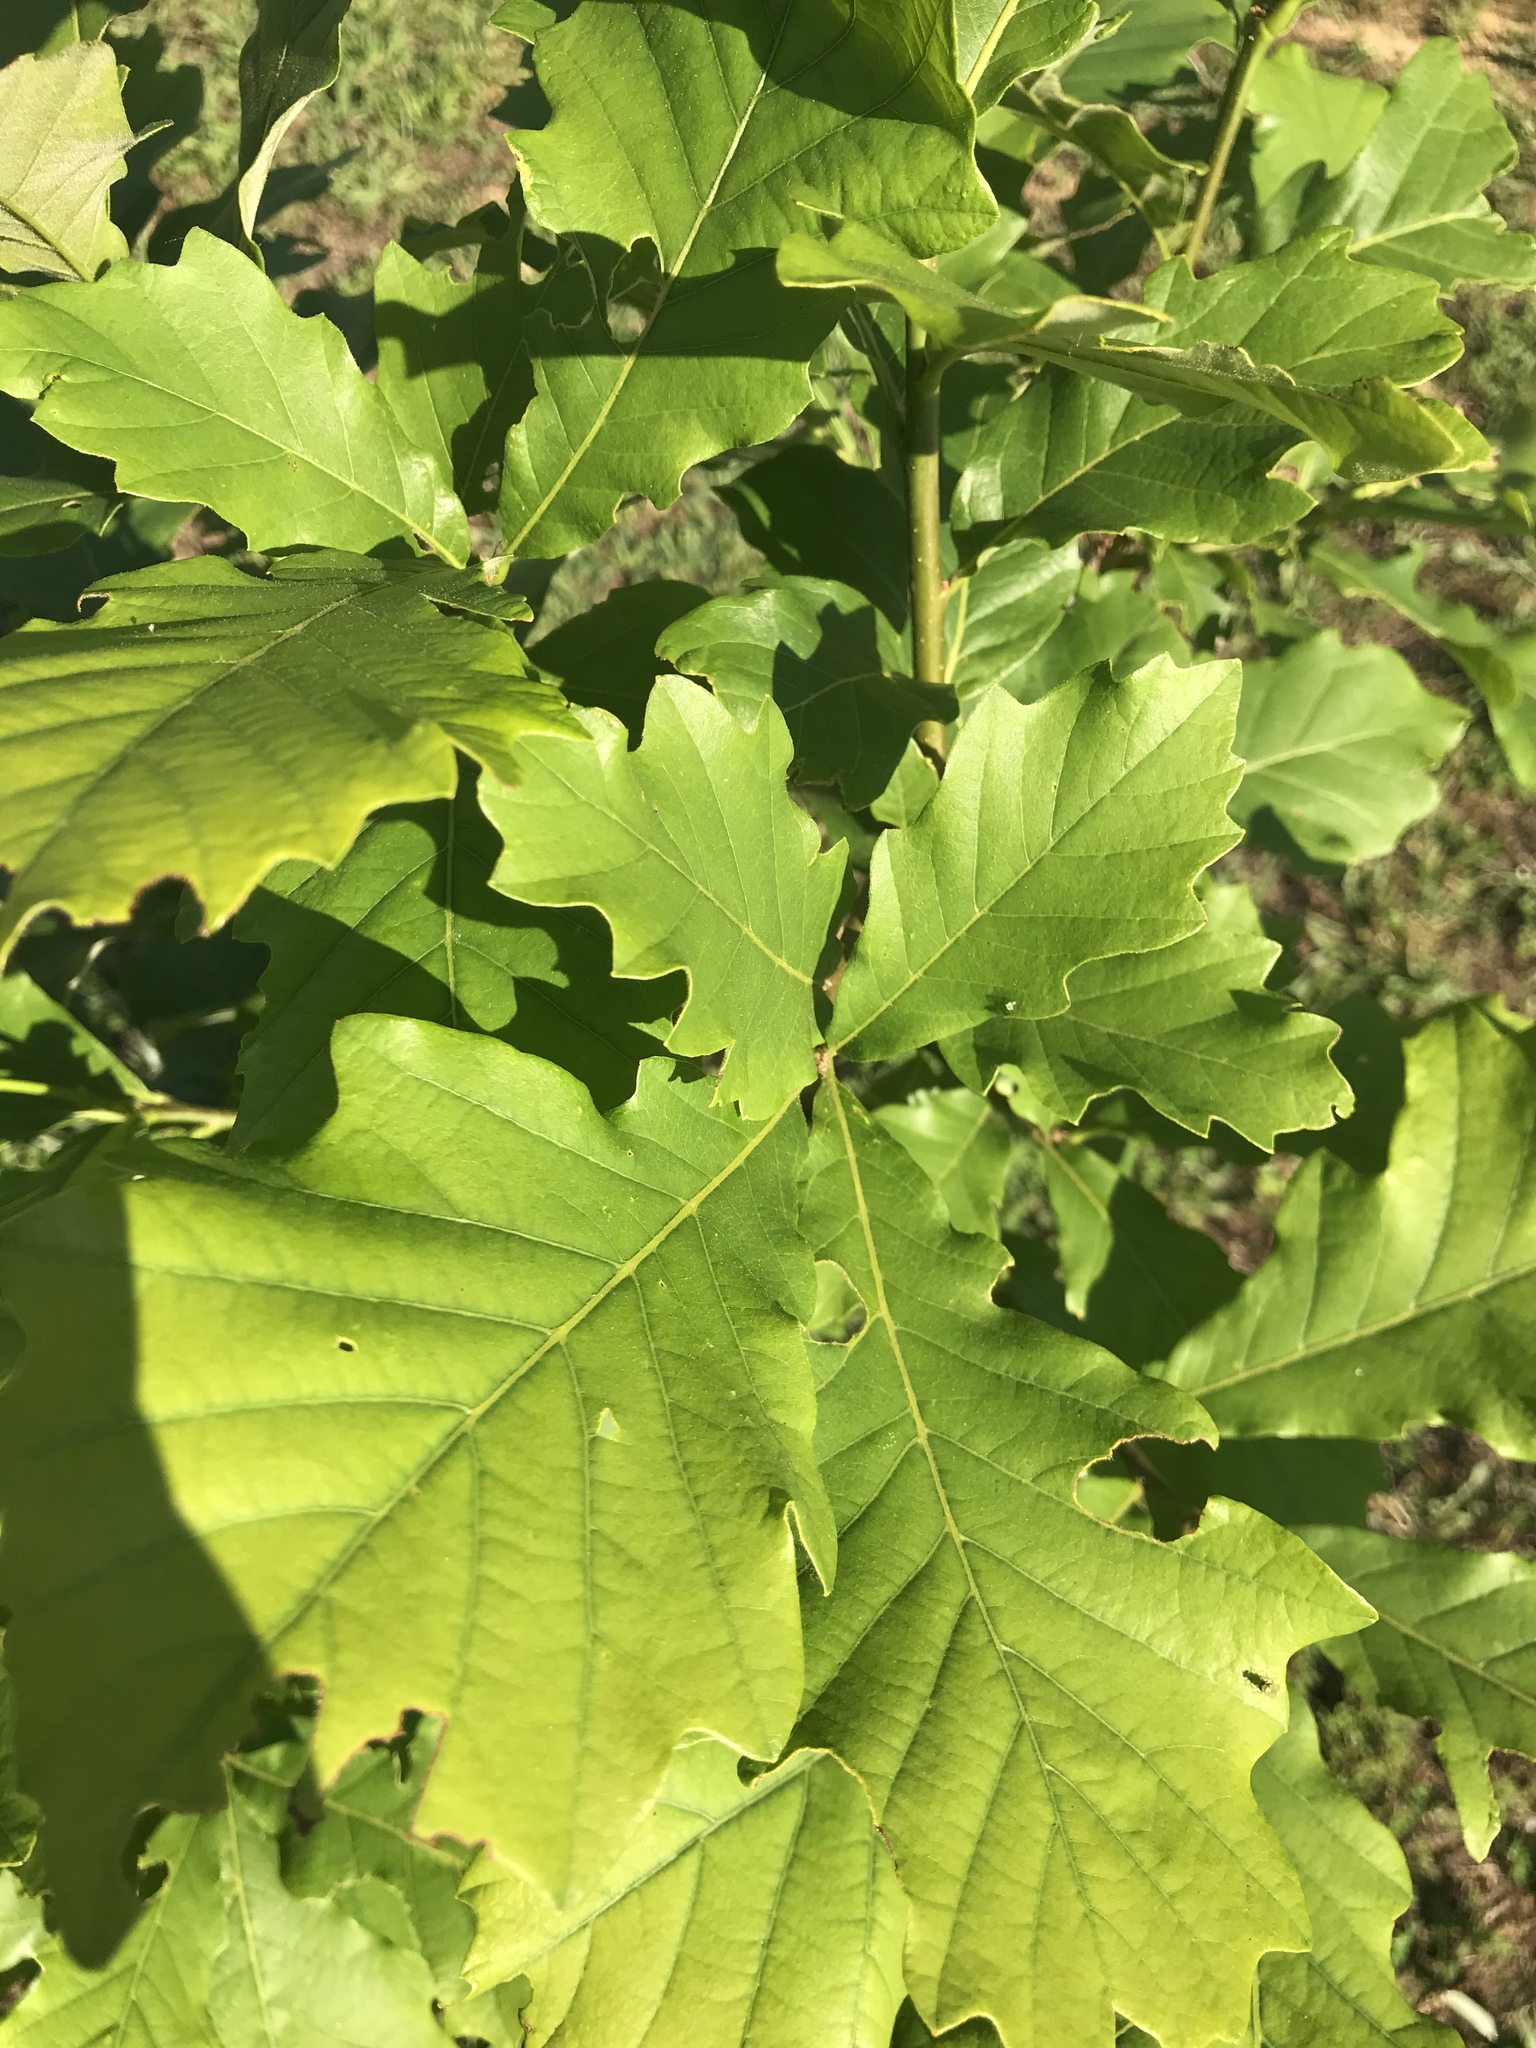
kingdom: Plantae
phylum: Tracheophyta
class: Magnoliopsida
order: Fagales
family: Fagaceae
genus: Quercus
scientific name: Quercus bicolor
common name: Swamp white oak
